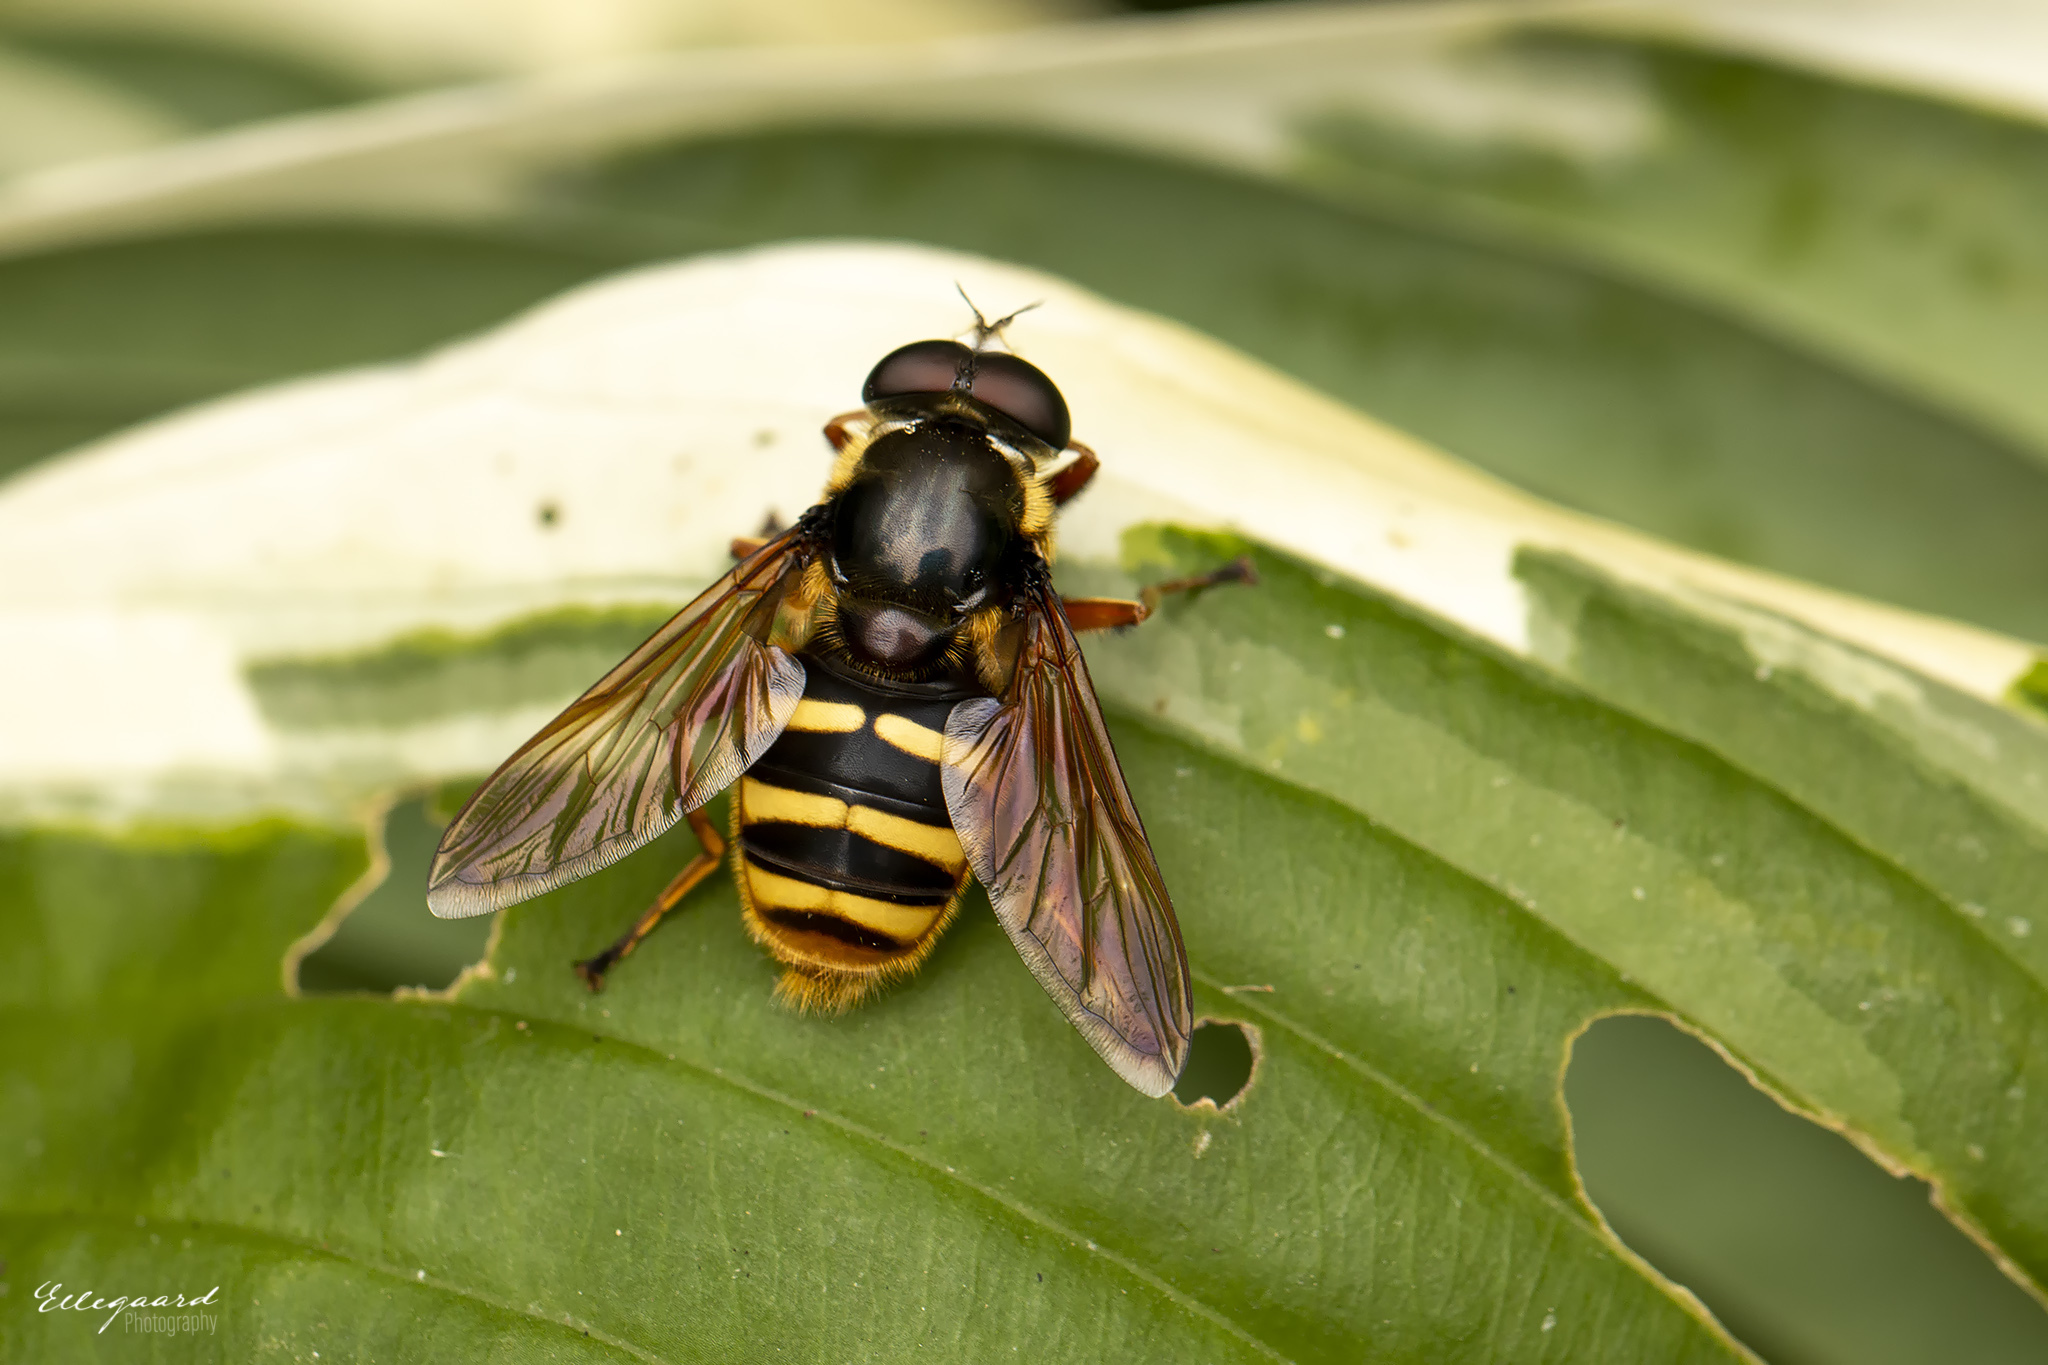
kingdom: Animalia
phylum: Arthropoda
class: Insecta
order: Diptera
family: Syrphidae
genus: Sericomyia
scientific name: Sericomyia silentis
